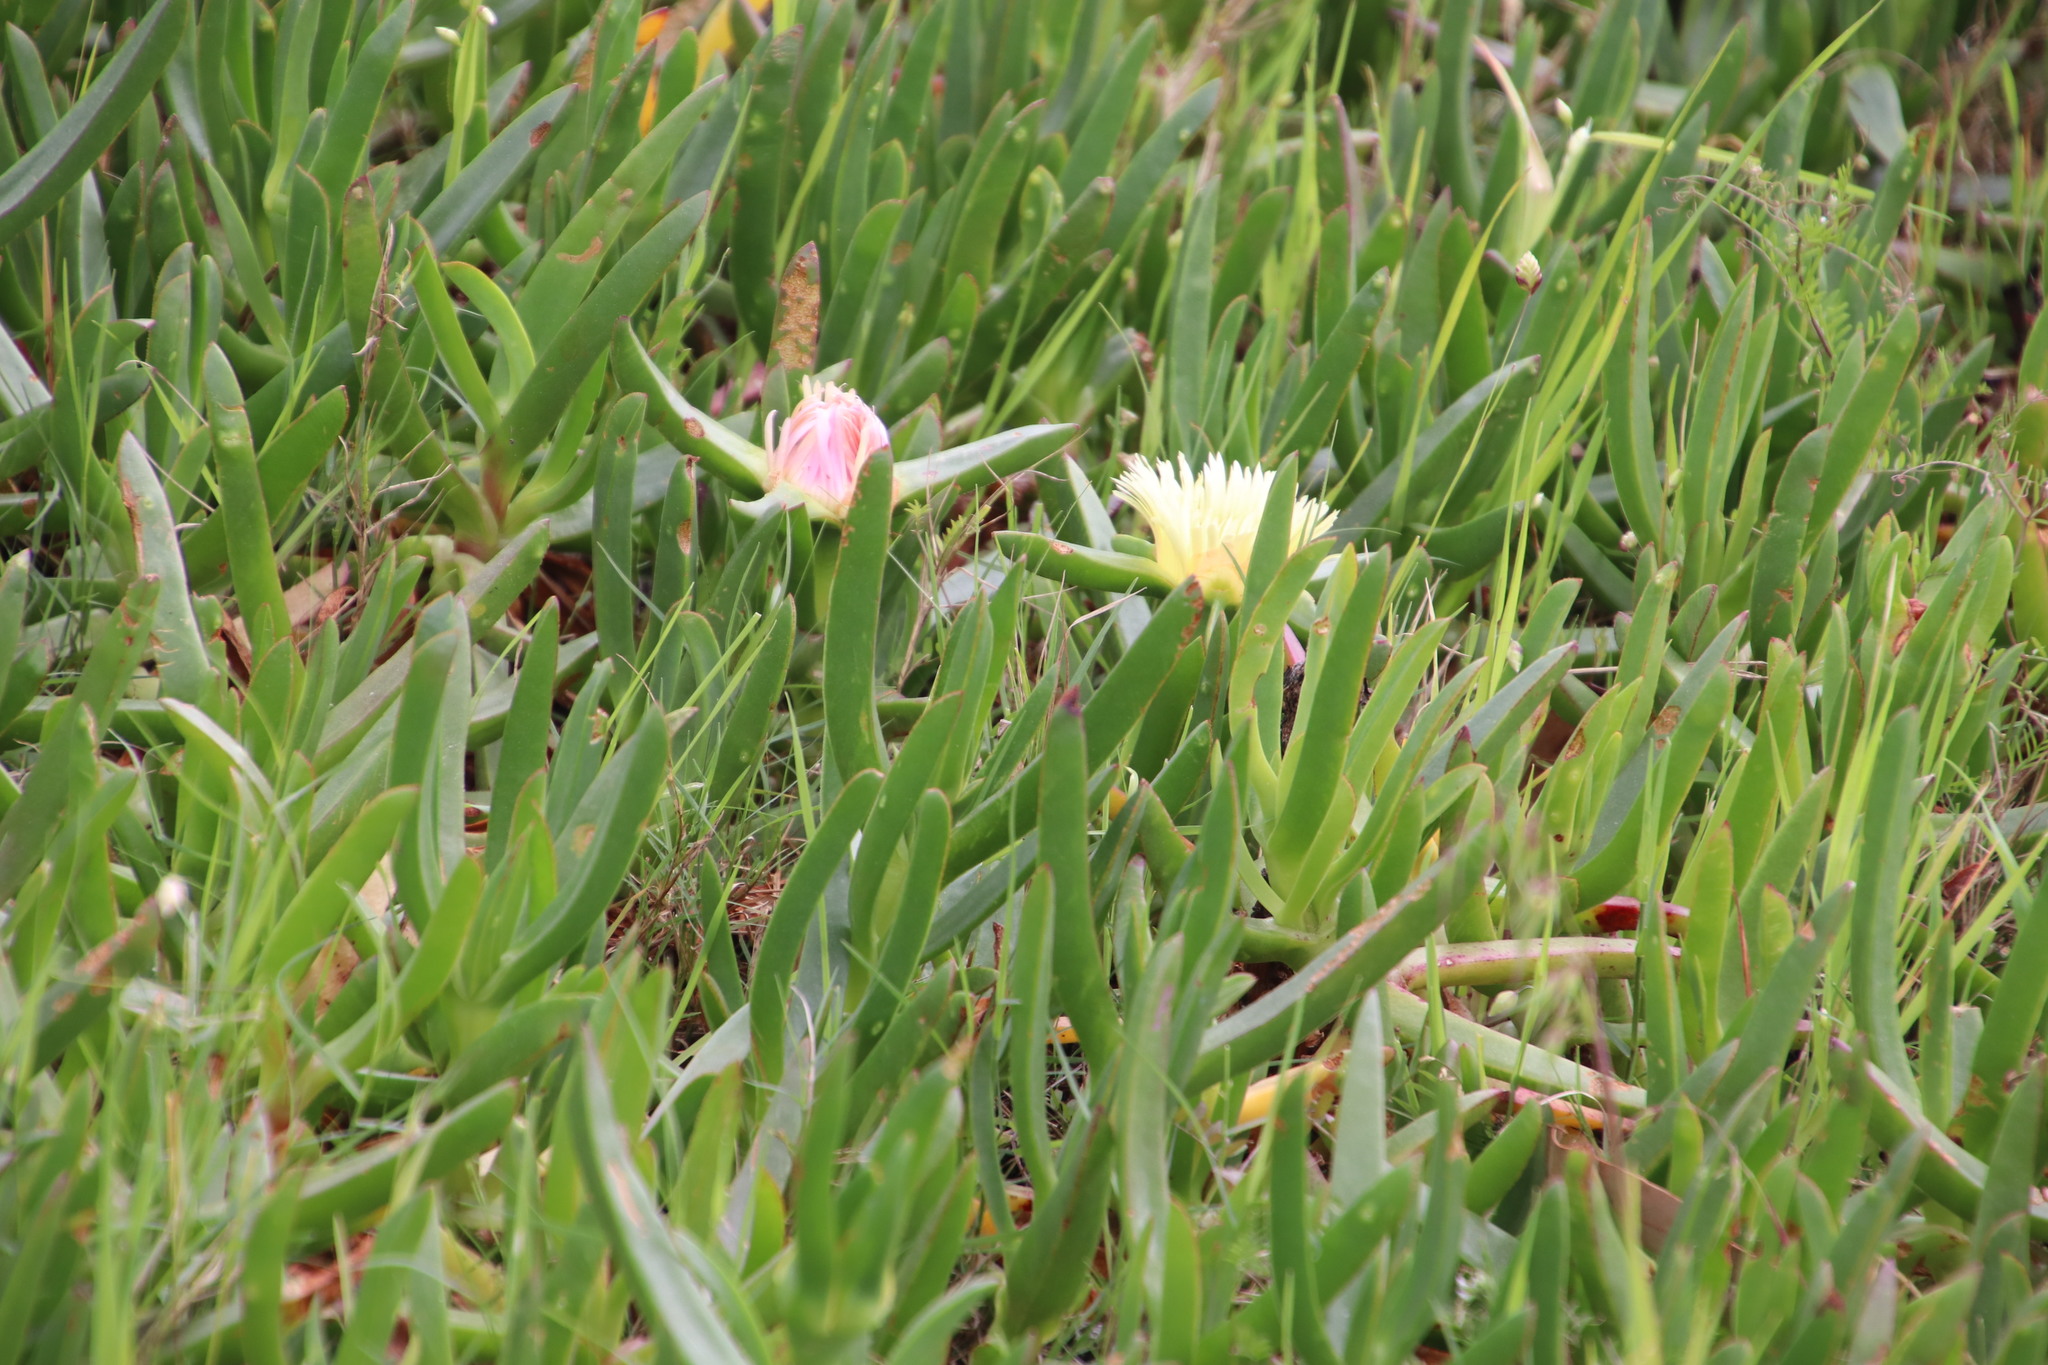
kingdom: Plantae
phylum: Tracheophyta
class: Magnoliopsida
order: Caryophyllales
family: Aizoaceae
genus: Carpobrotus
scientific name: Carpobrotus edulis
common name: Hottentot-fig
